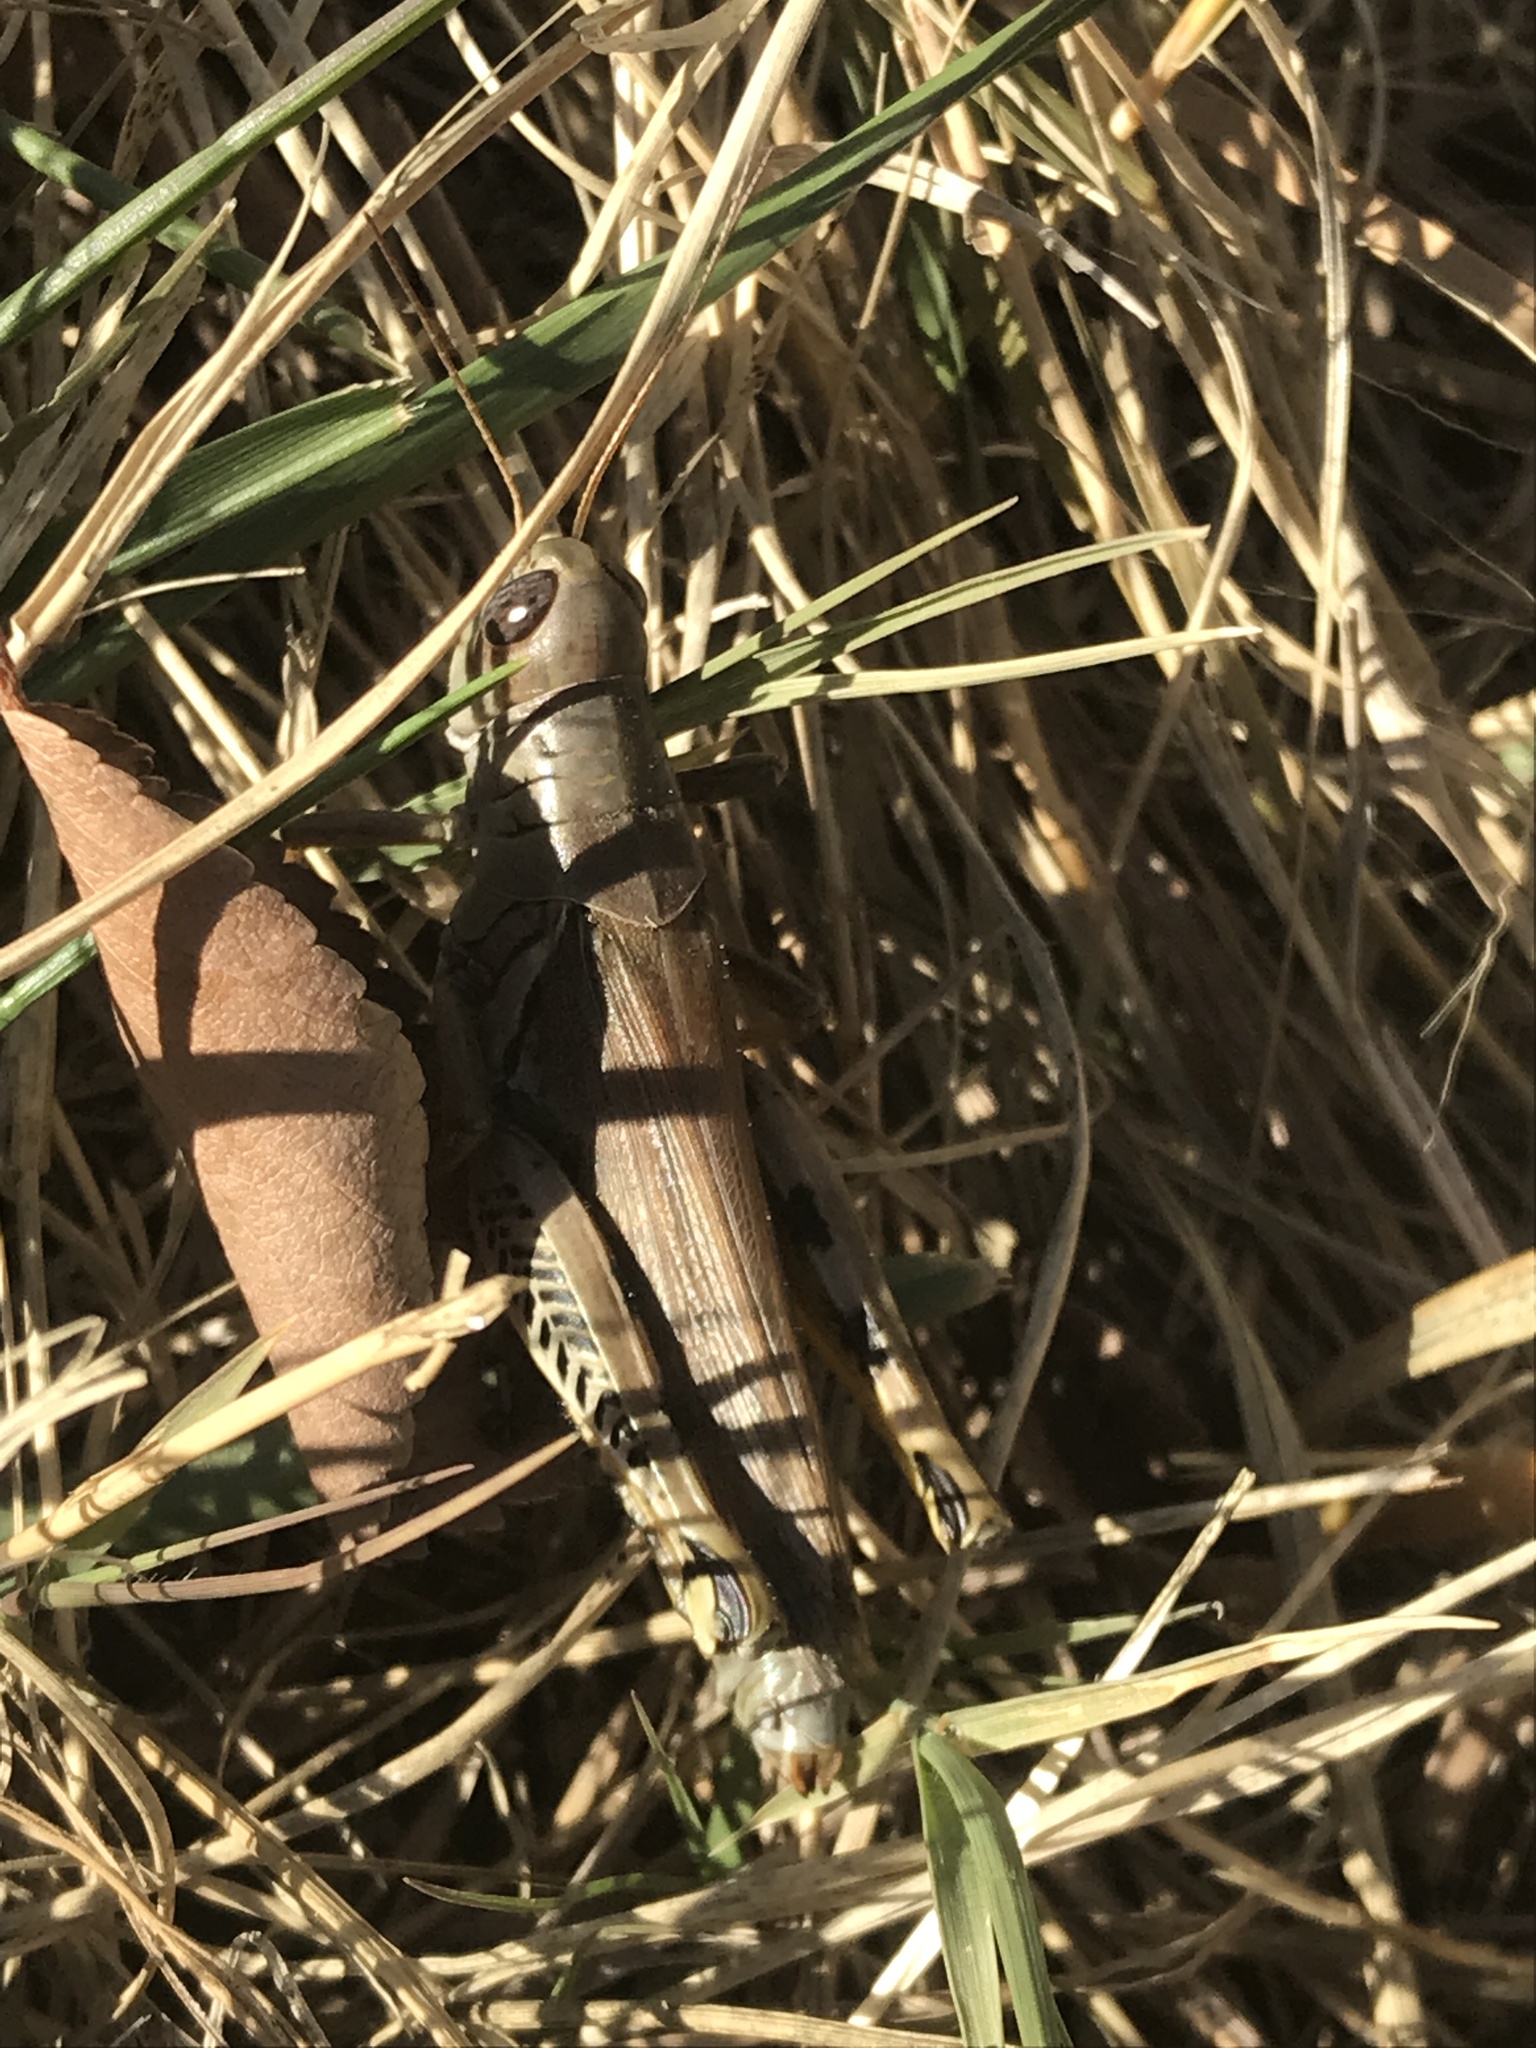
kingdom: Animalia
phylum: Arthropoda
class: Insecta
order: Orthoptera
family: Acrididae
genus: Melanoplus
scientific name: Melanoplus differentialis
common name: Differential grasshopper
